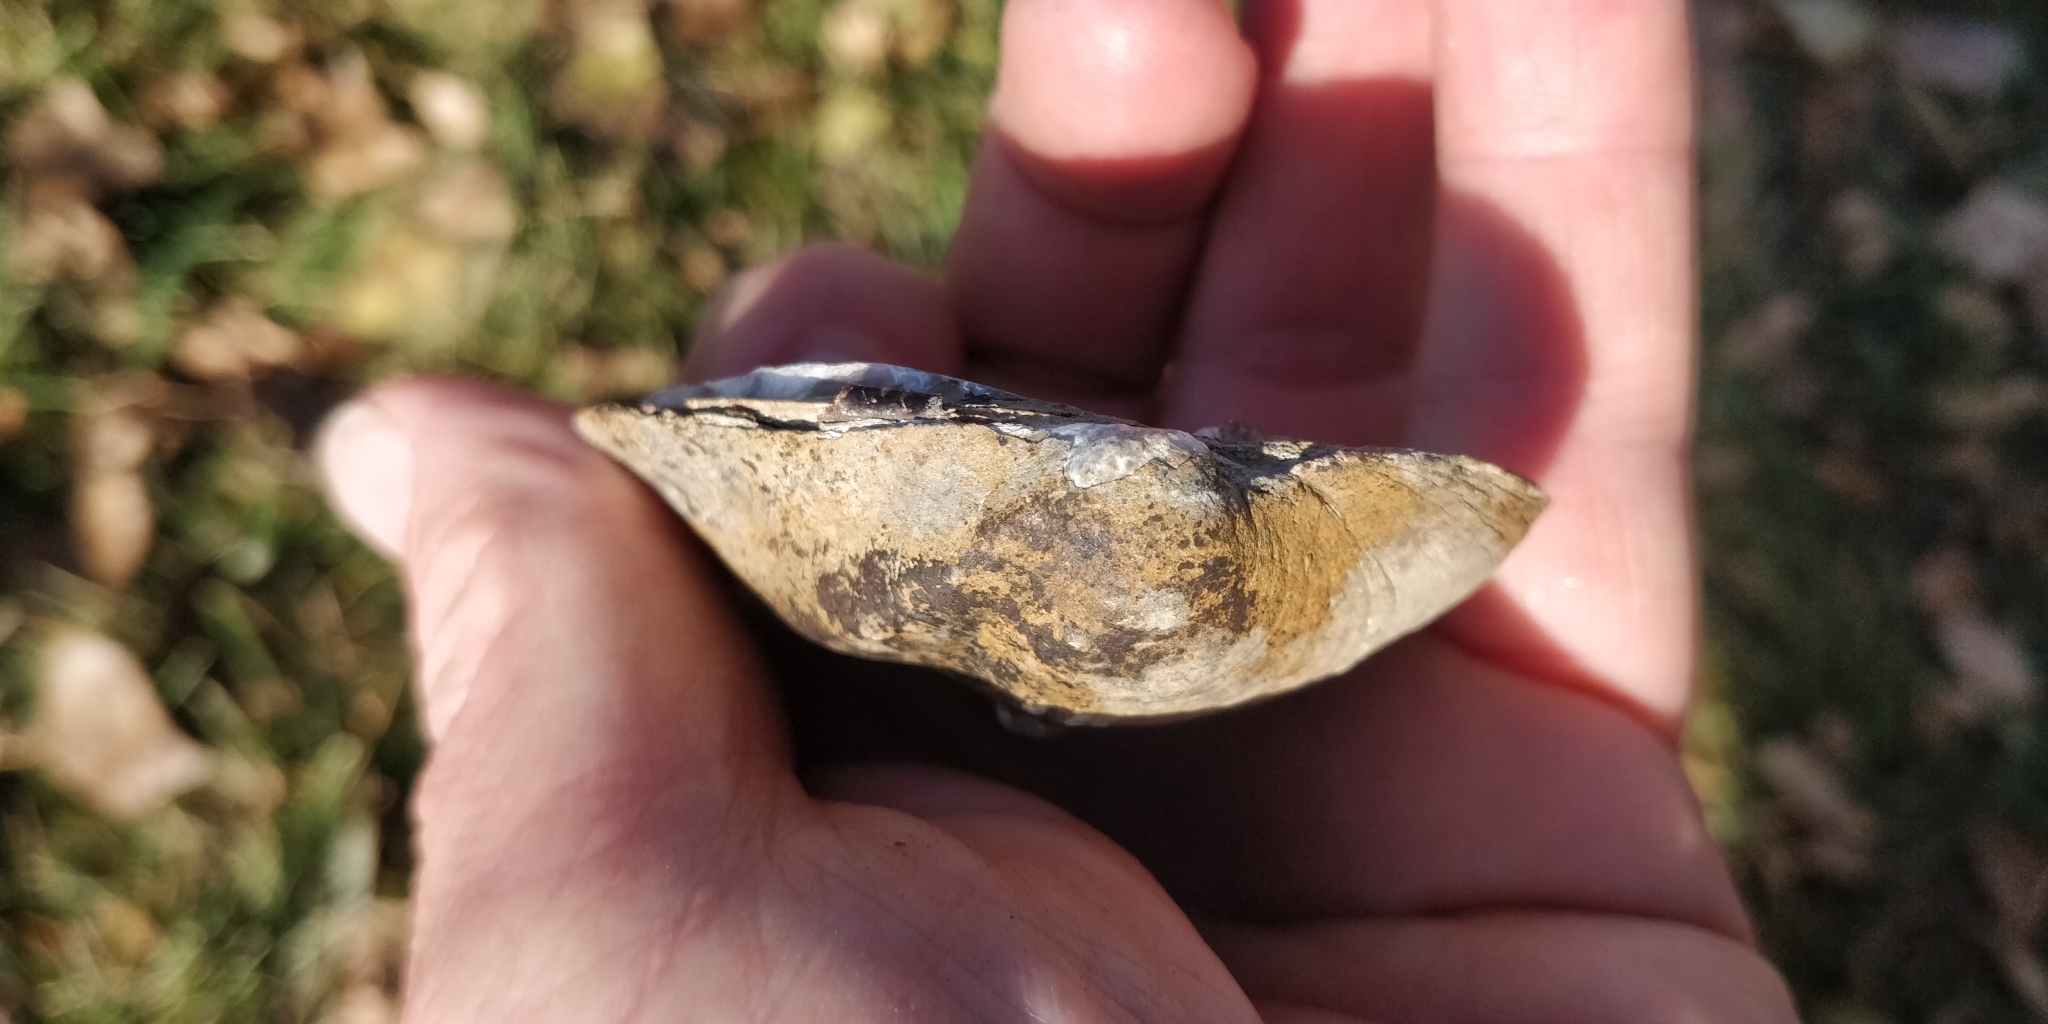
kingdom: Animalia
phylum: Mollusca
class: Bivalvia
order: Unionida
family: Unionidae
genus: Quadrula
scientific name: Quadrula quadrula
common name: Mapleleaf
